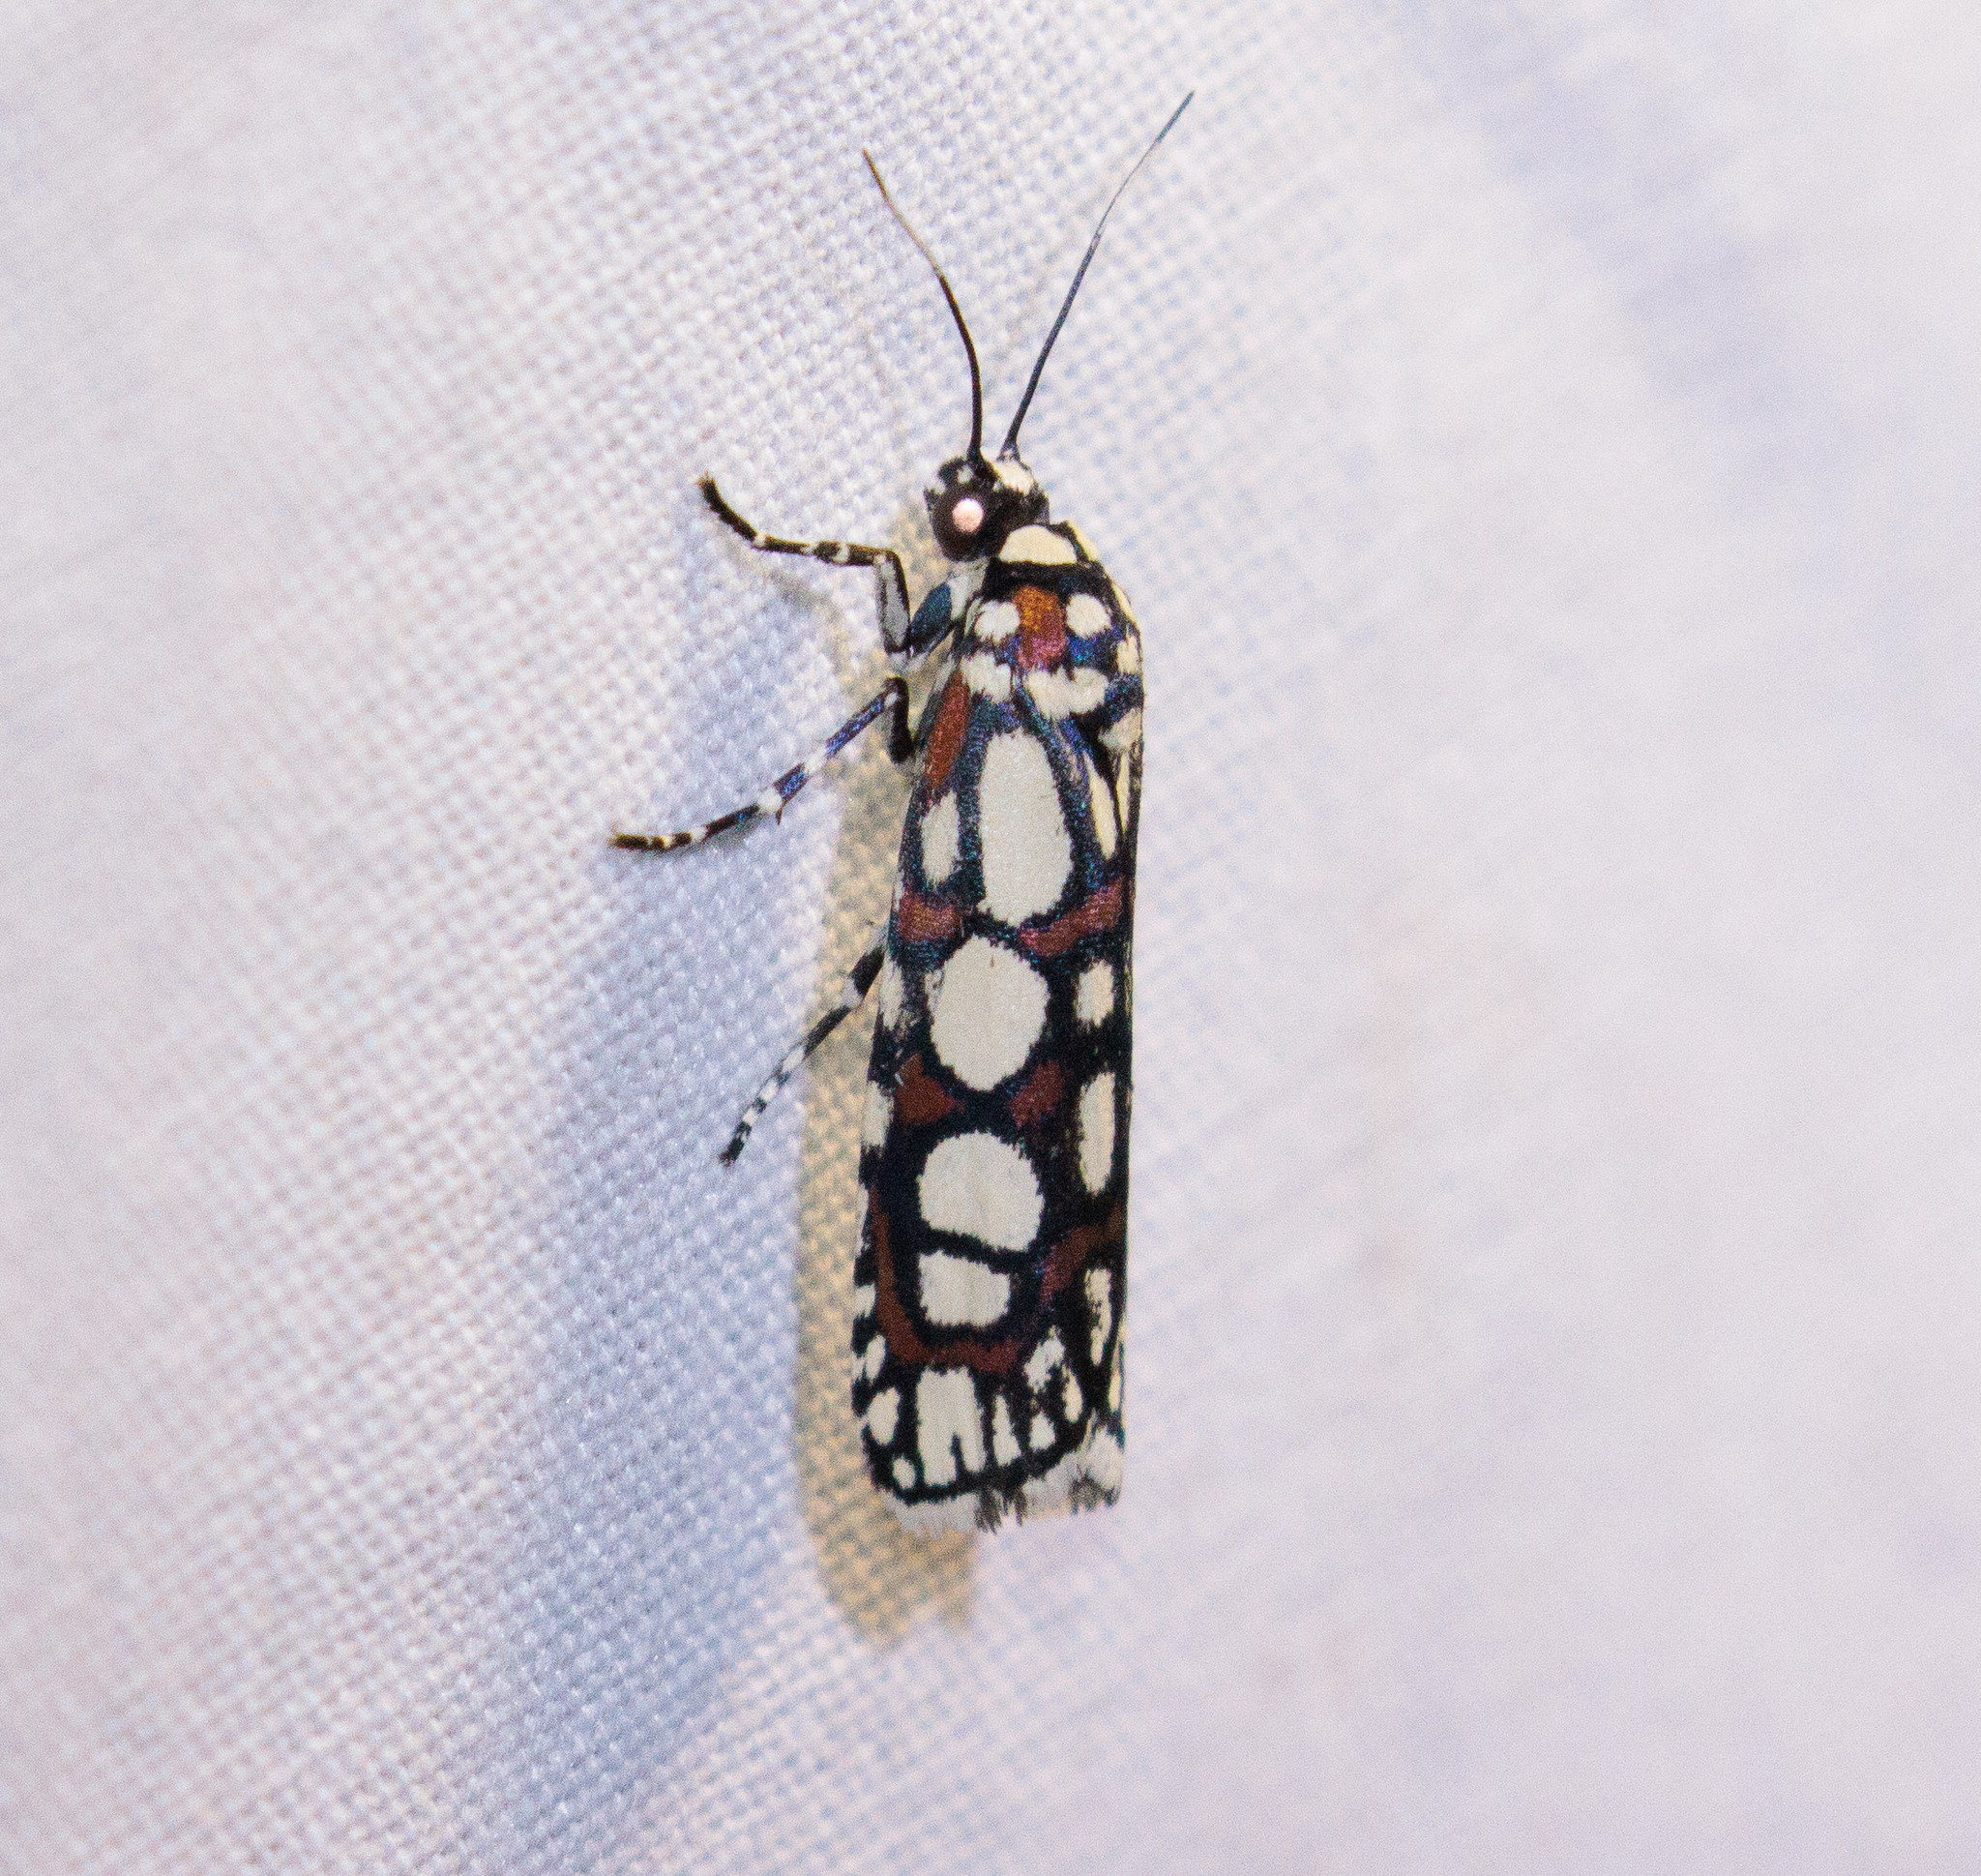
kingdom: Animalia
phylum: Arthropoda
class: Insecta
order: Lepidoptera
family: Noctuidae
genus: Cydosia
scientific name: Cydosia nobilitella
